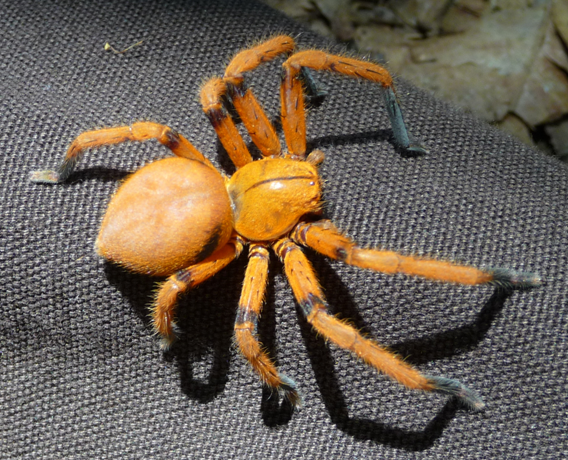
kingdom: Animalia
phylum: Arthropoda
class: Arachnida
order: Araneae
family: Sparassidae
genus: Olios
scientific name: Olios simoni
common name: Huntsman spiders
